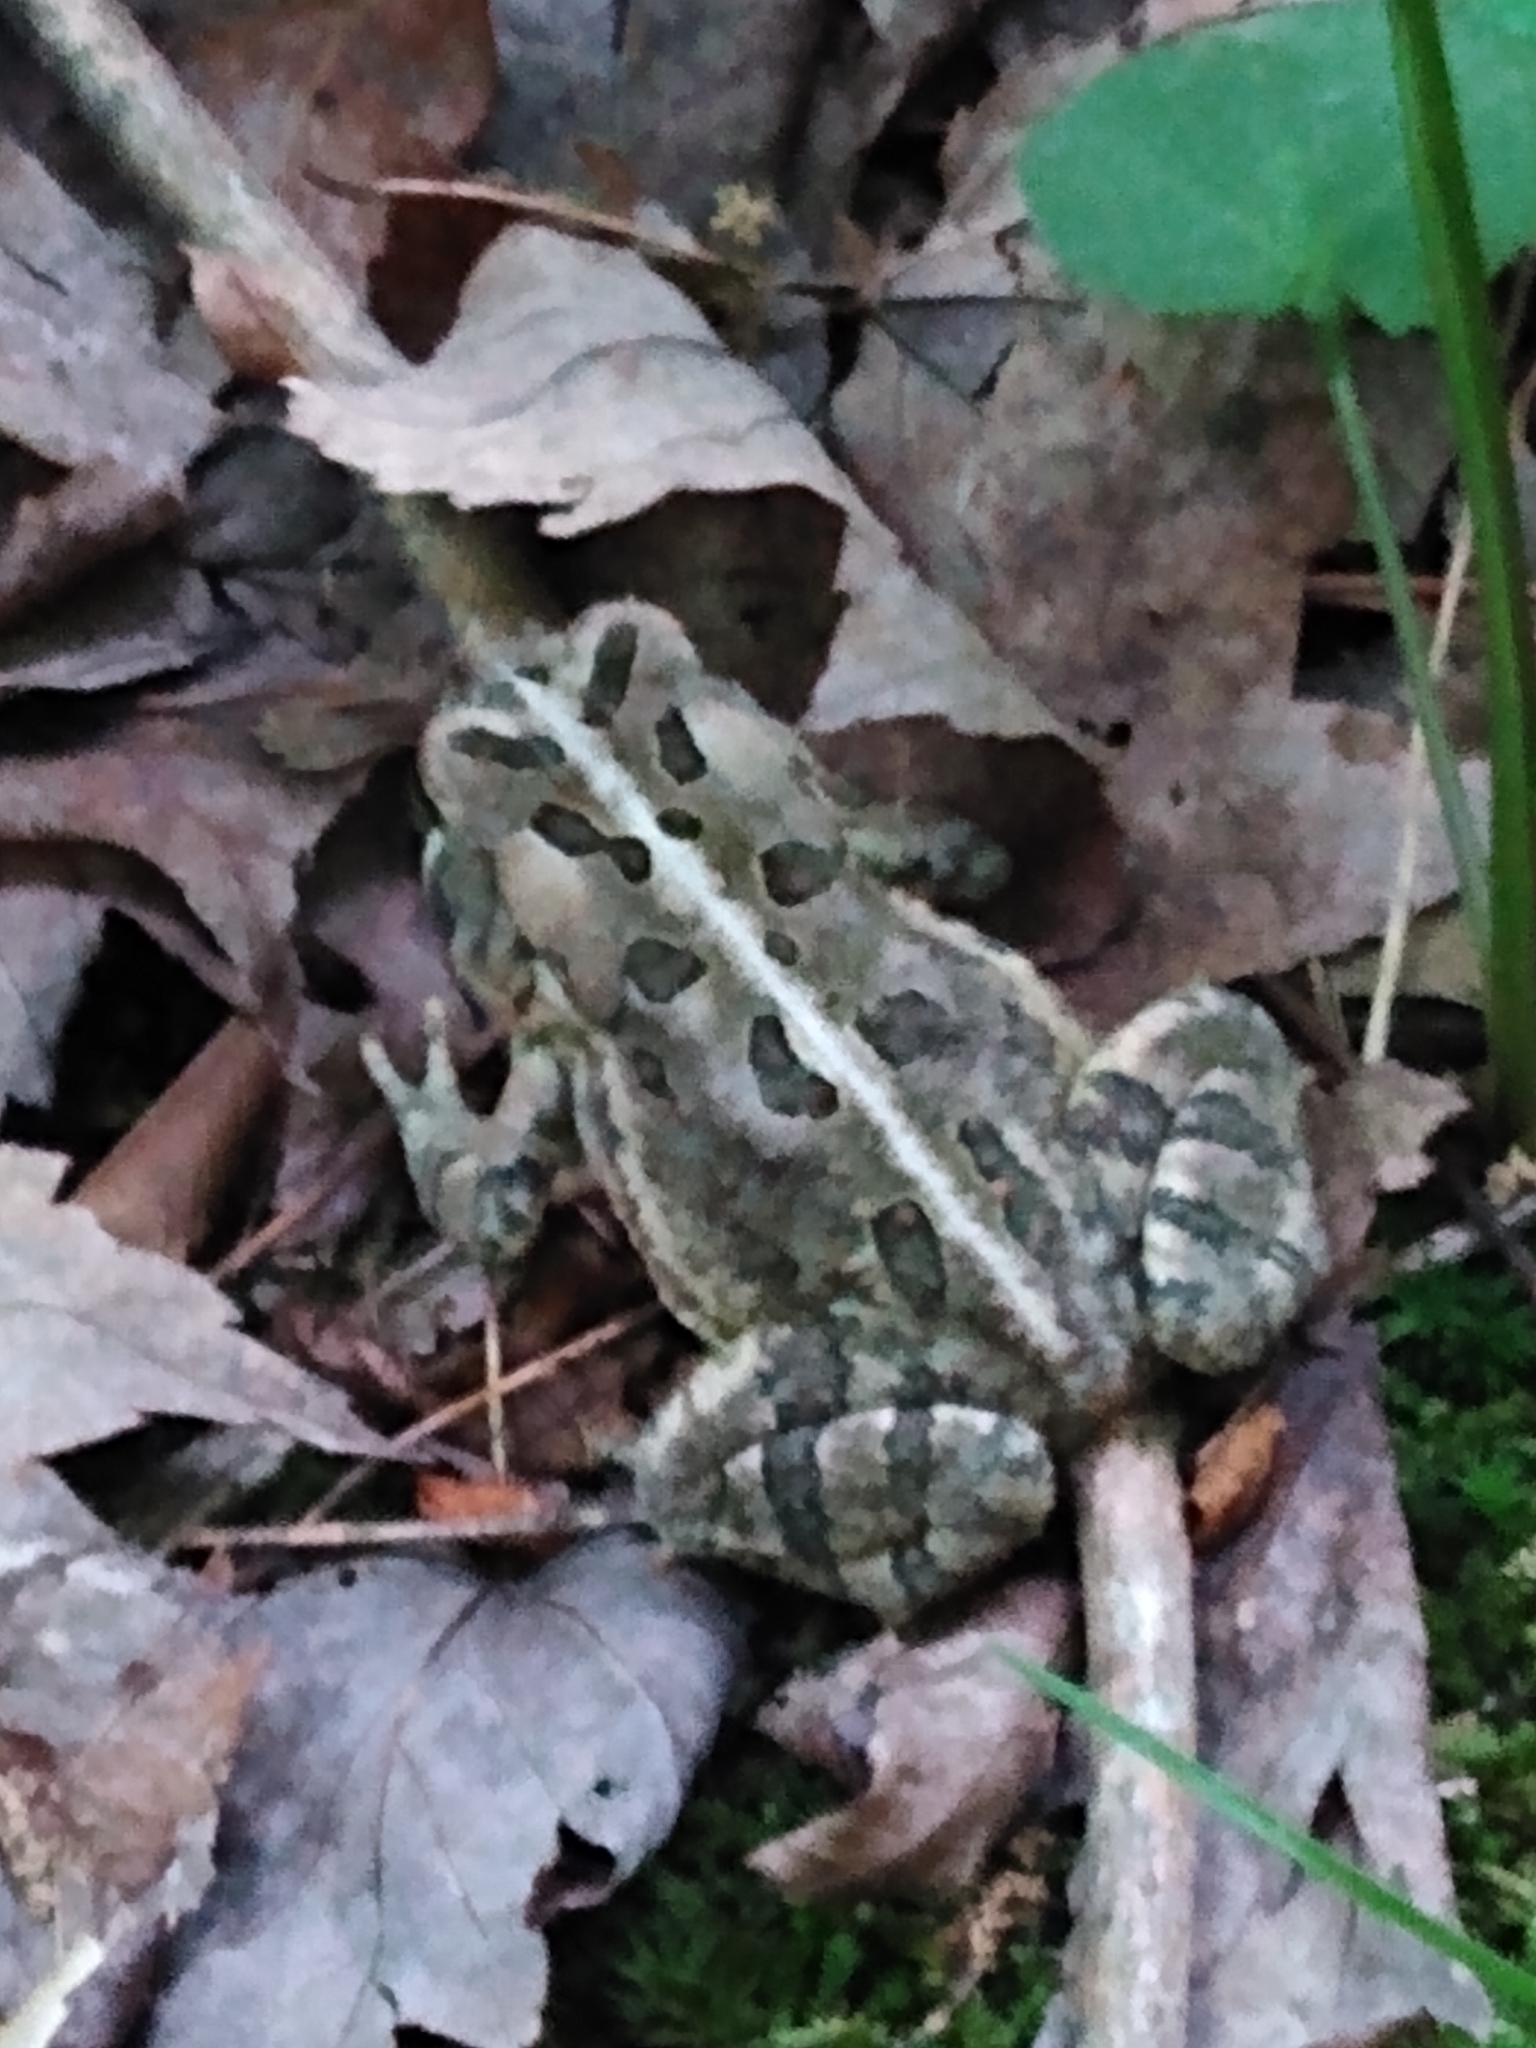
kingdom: Animalia
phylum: Chordata
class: Amphibia
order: Anura
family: Bufonidae
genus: Anaxyrus
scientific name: Anaxyrus fowleri
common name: Fowler's toad
